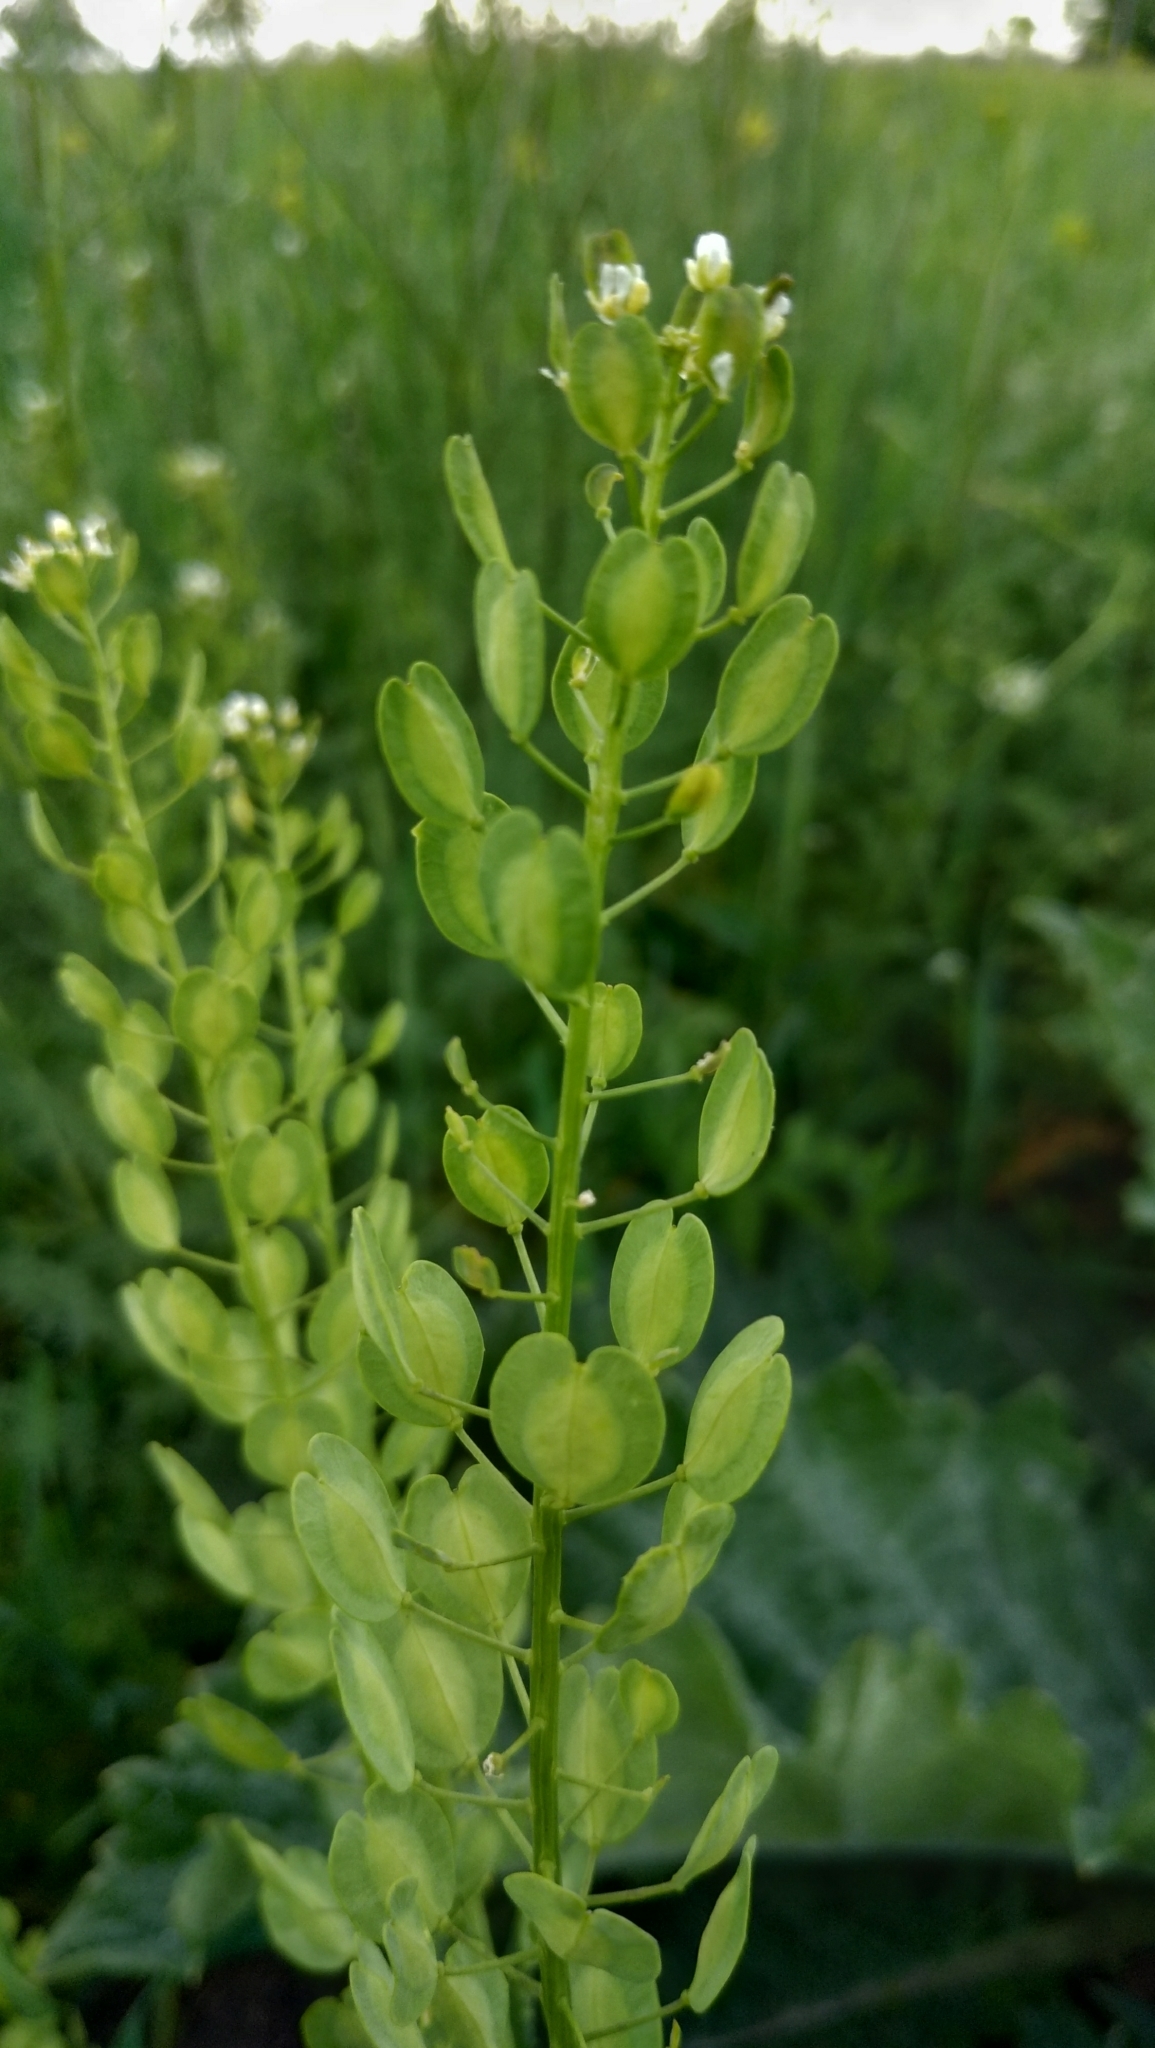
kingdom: Plantae
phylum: Tracheophyta
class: Magnoliopsida
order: Brassicales
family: Brassicaceae
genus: Thlaspi
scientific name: Thlaspi arvense
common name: Field pennycress
